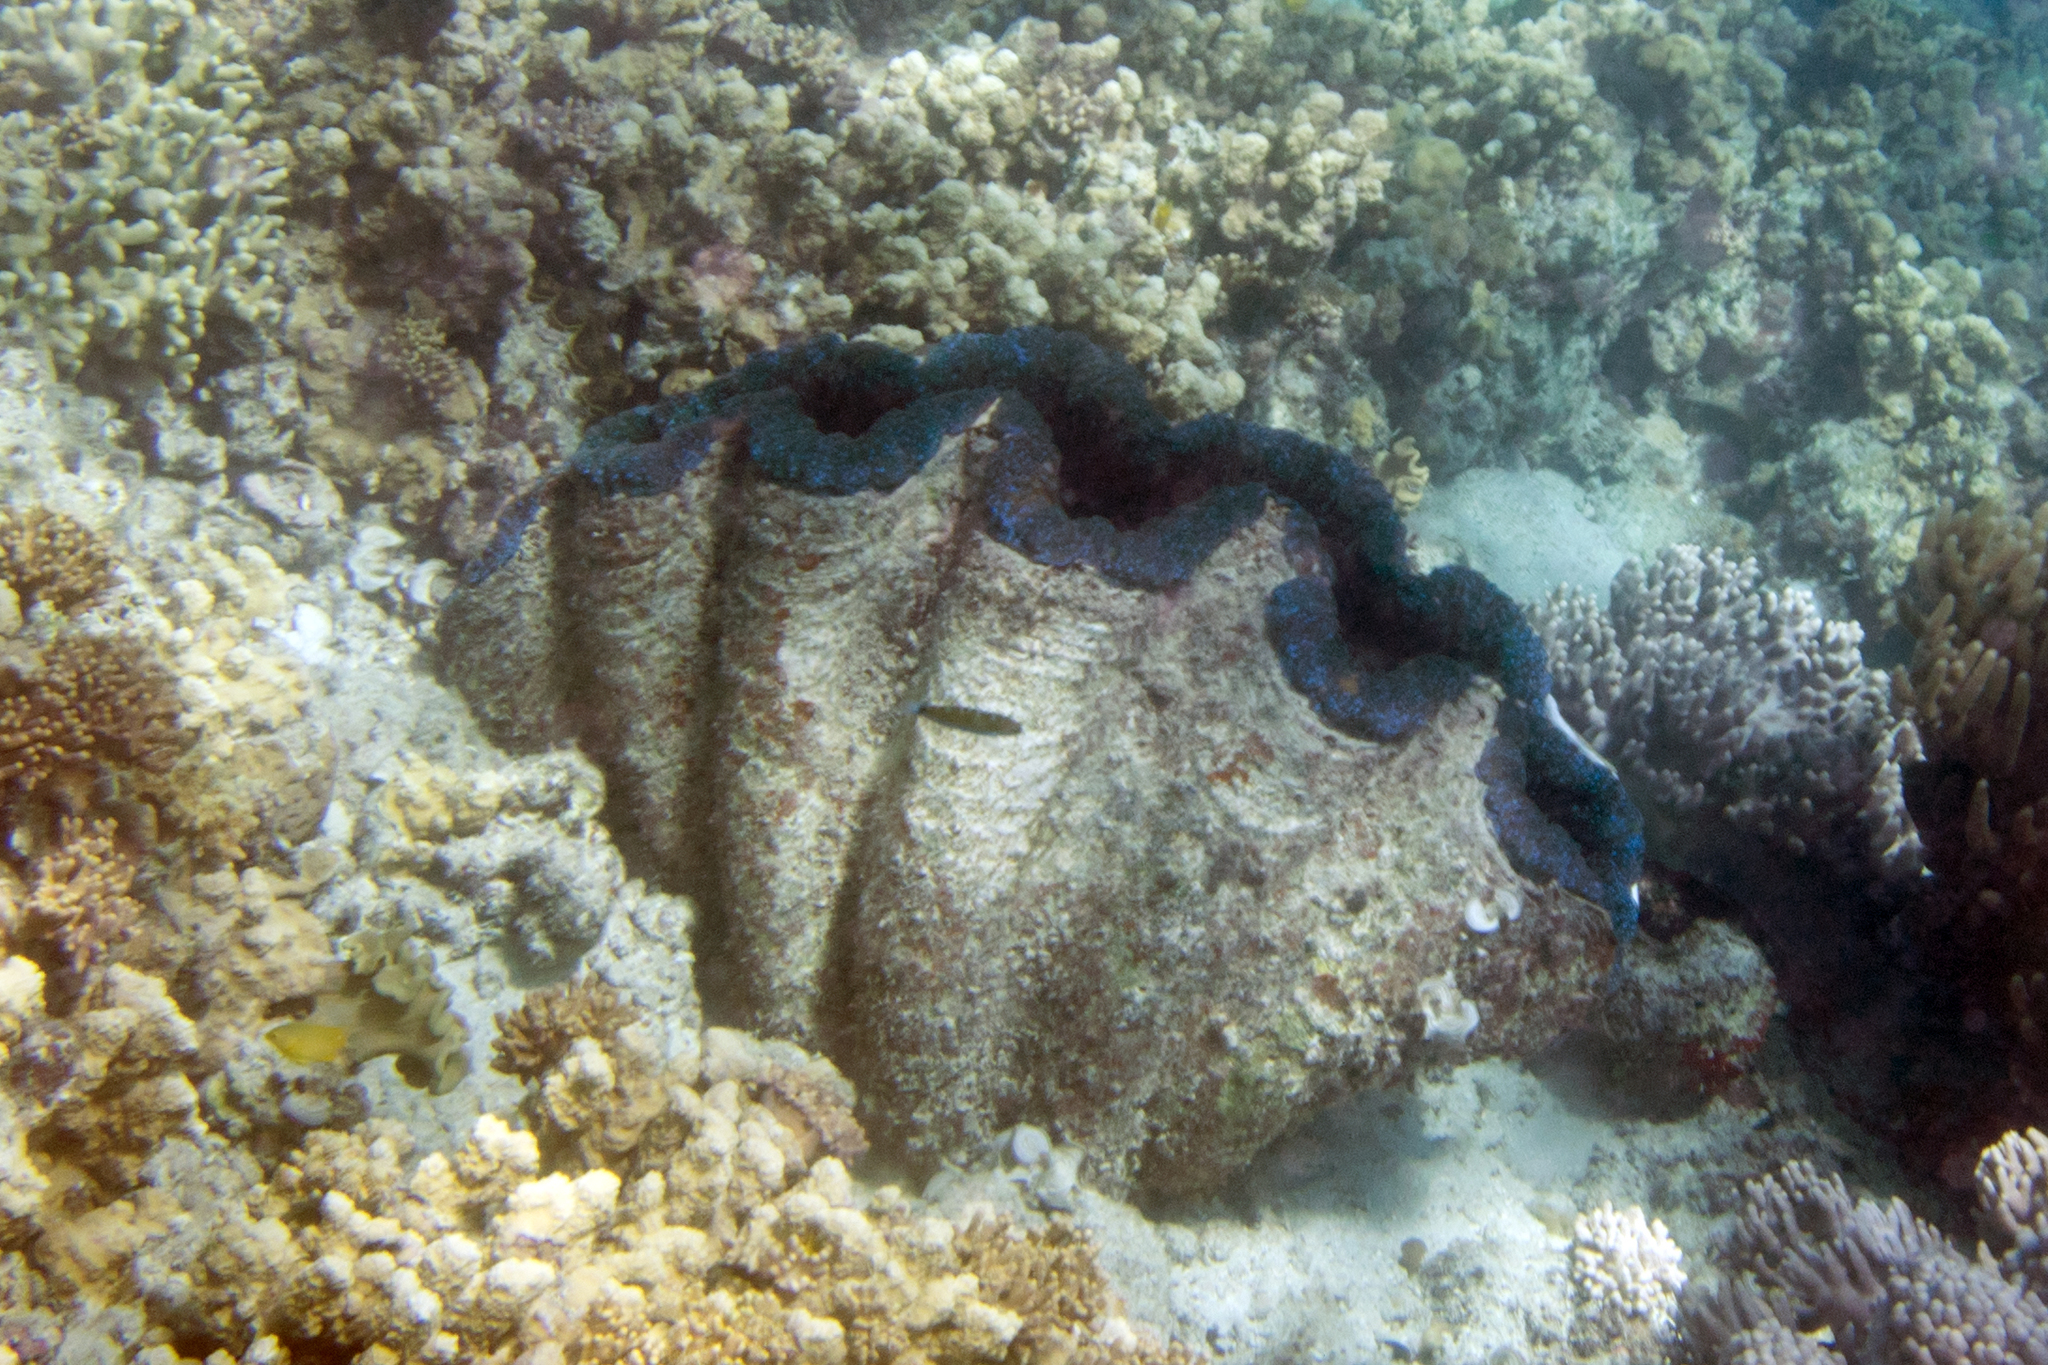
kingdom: Animalia
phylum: Mollusca
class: Bivalvia
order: Cardiida
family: Cardiidae
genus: Tridacna
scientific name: Tridacna gigas
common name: Giant clam
